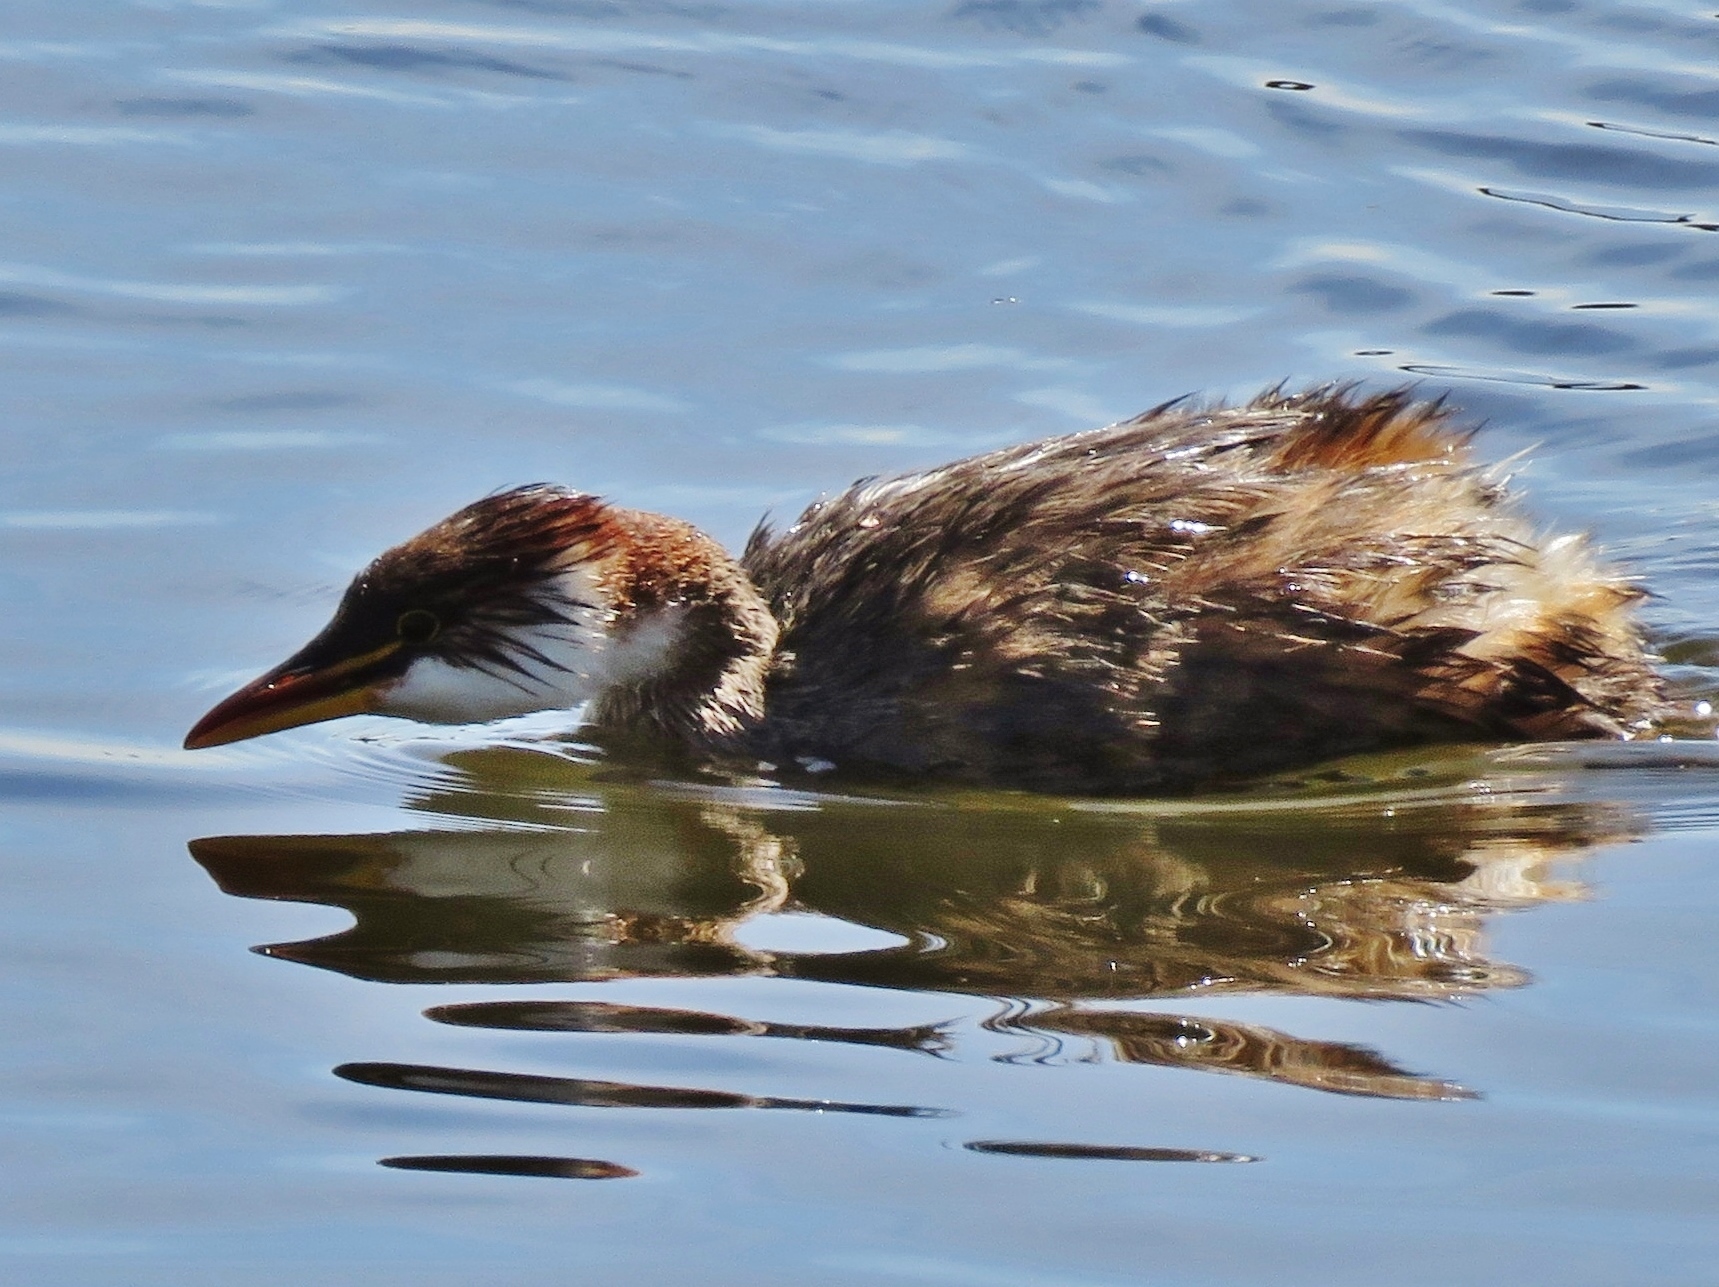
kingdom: Animalia
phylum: Chordata
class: Aves
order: Podicipediformes
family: Podicipedidae
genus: Rollandia
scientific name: Rollandia microptera
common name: Titicaca grebe
